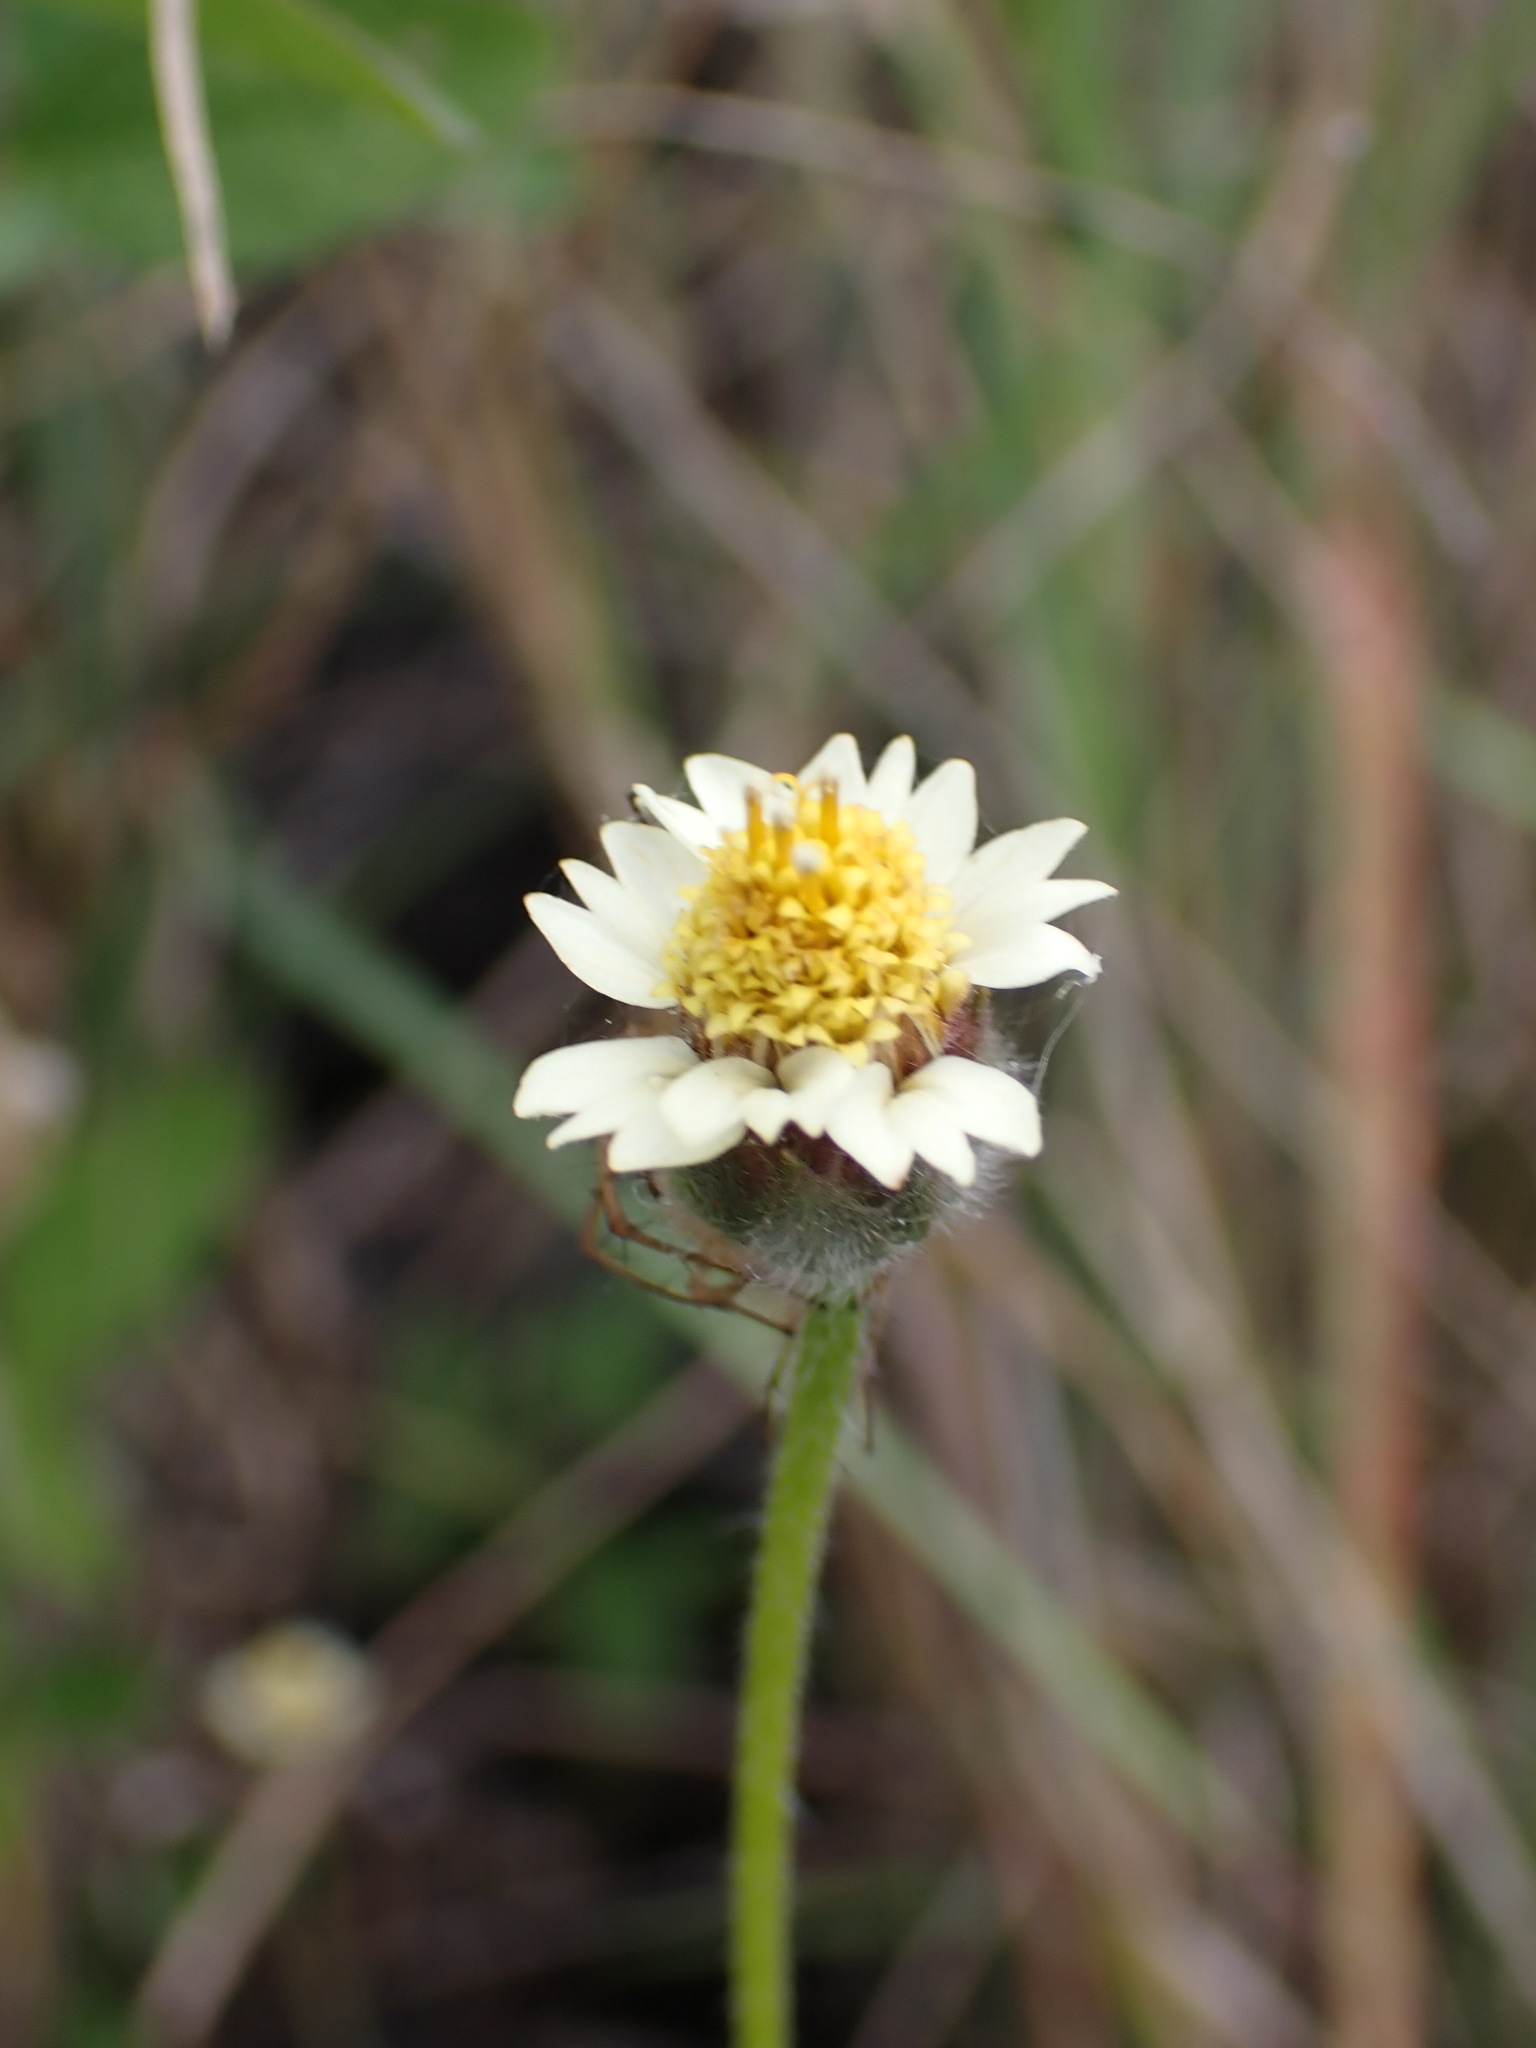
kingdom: Plantae
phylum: Tracheophyta
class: Magnoliopsida
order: Asterales
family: Asteraceae
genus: Tridax
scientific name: Tridax procumbens
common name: Coatbuttons
